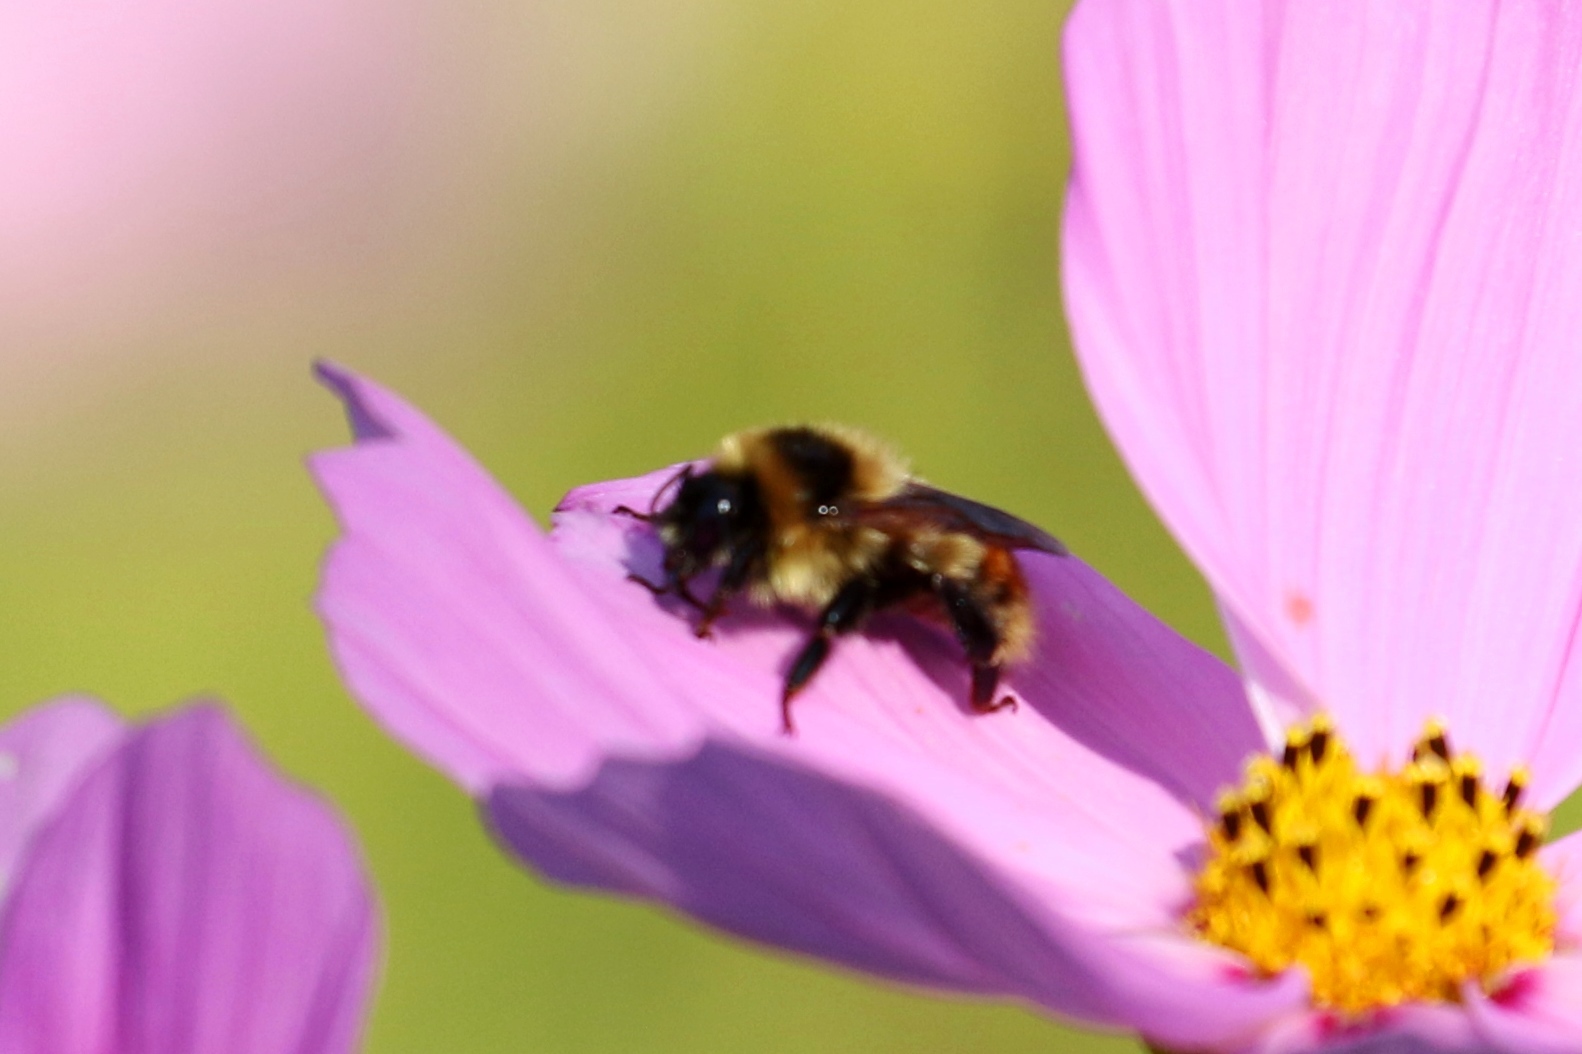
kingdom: Animalia
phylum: Arthropoda
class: Insecta
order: Hymenoptera
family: Apidae
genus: Bombus
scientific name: Bombus rufocinctus
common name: Red-belted bumble bee
